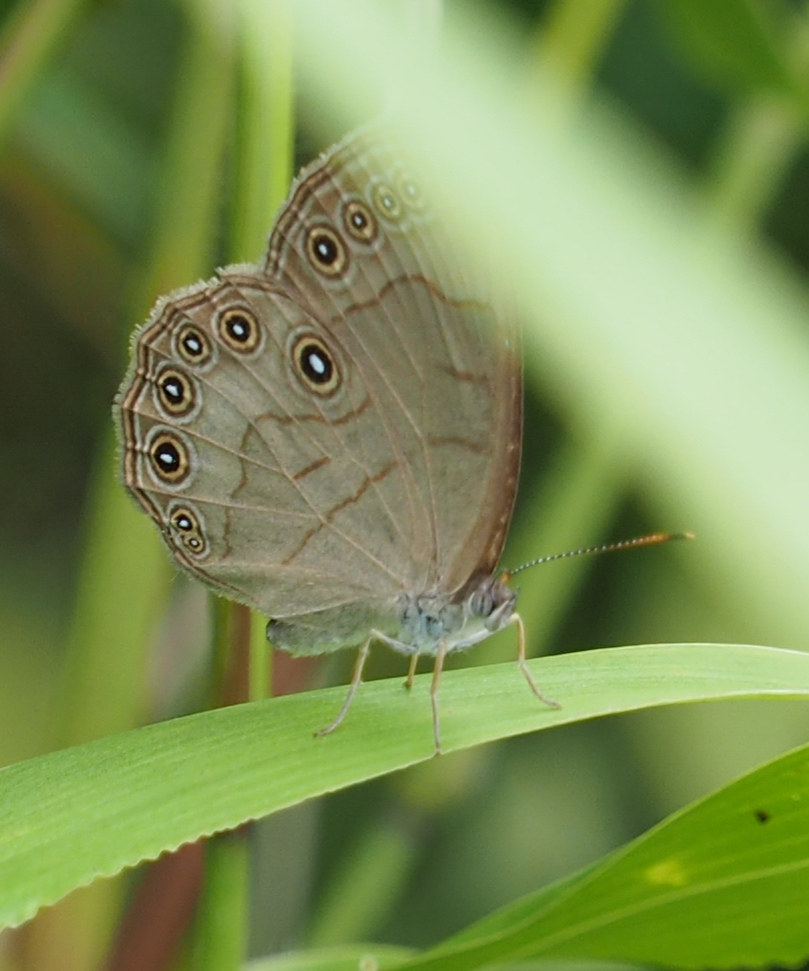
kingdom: Animalia
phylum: Arthropoda
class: Insecta
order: Lepidoptera
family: Nymphalidae
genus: Lethe
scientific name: Lethe eurydice
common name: Eyed brown
